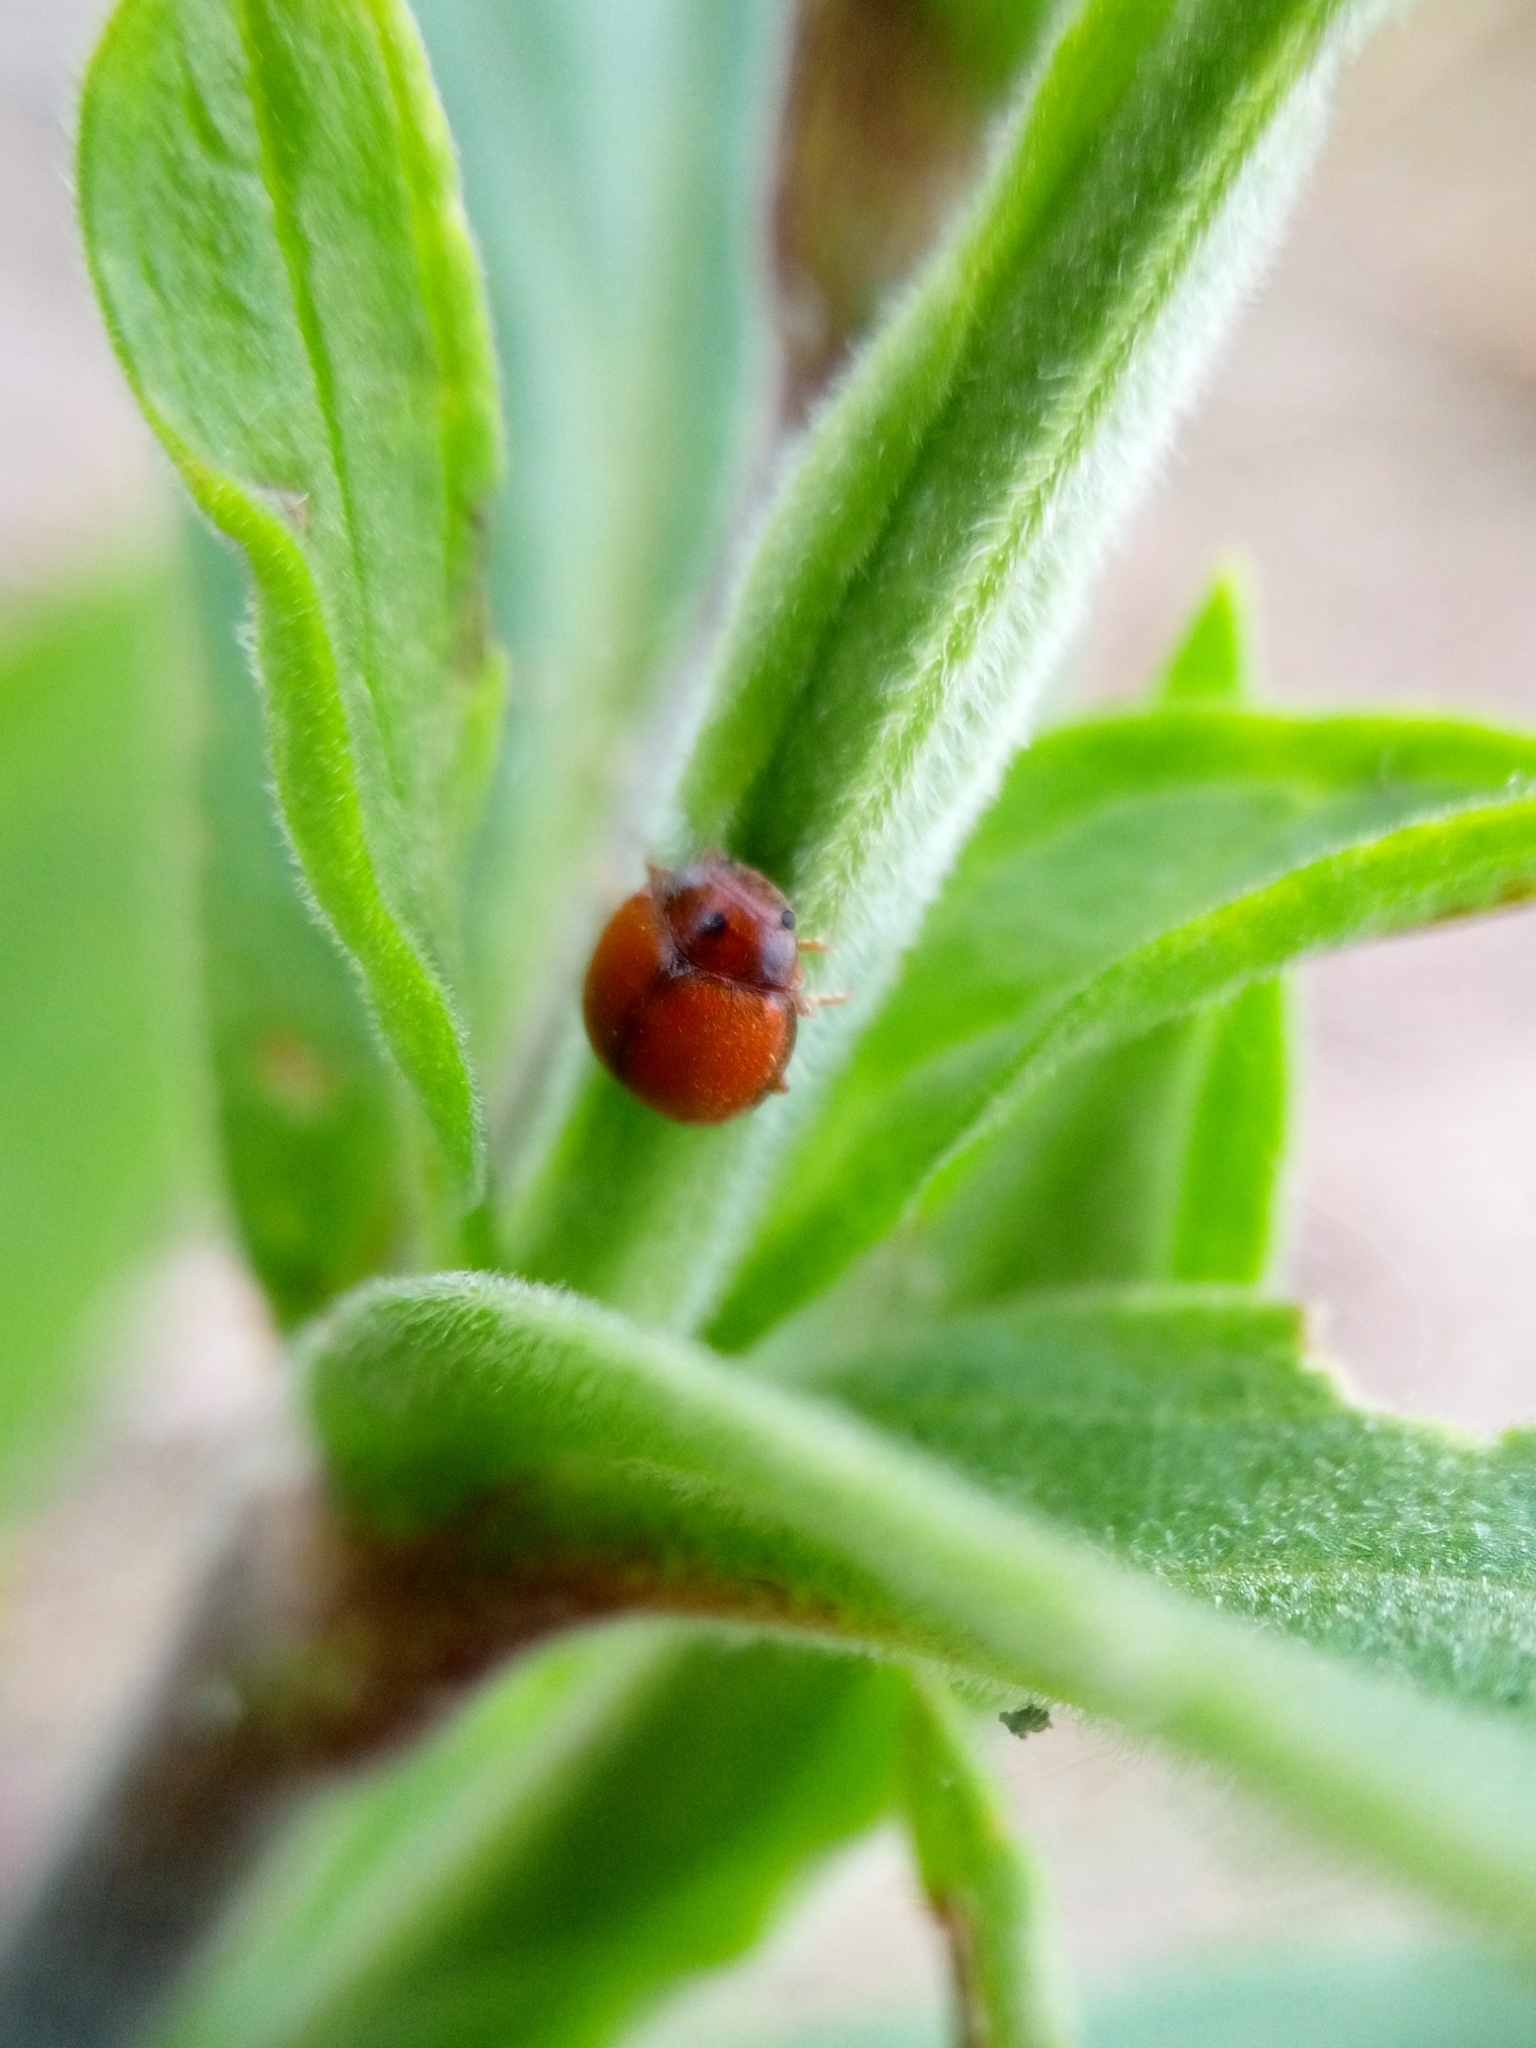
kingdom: Animalia
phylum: Arthropoda
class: Insecta
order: Coleoptera
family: Coccinellidae
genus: Subcoccinella
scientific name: Subcoccinella vigintiquatuorpunctata
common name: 24-spot ladybird
